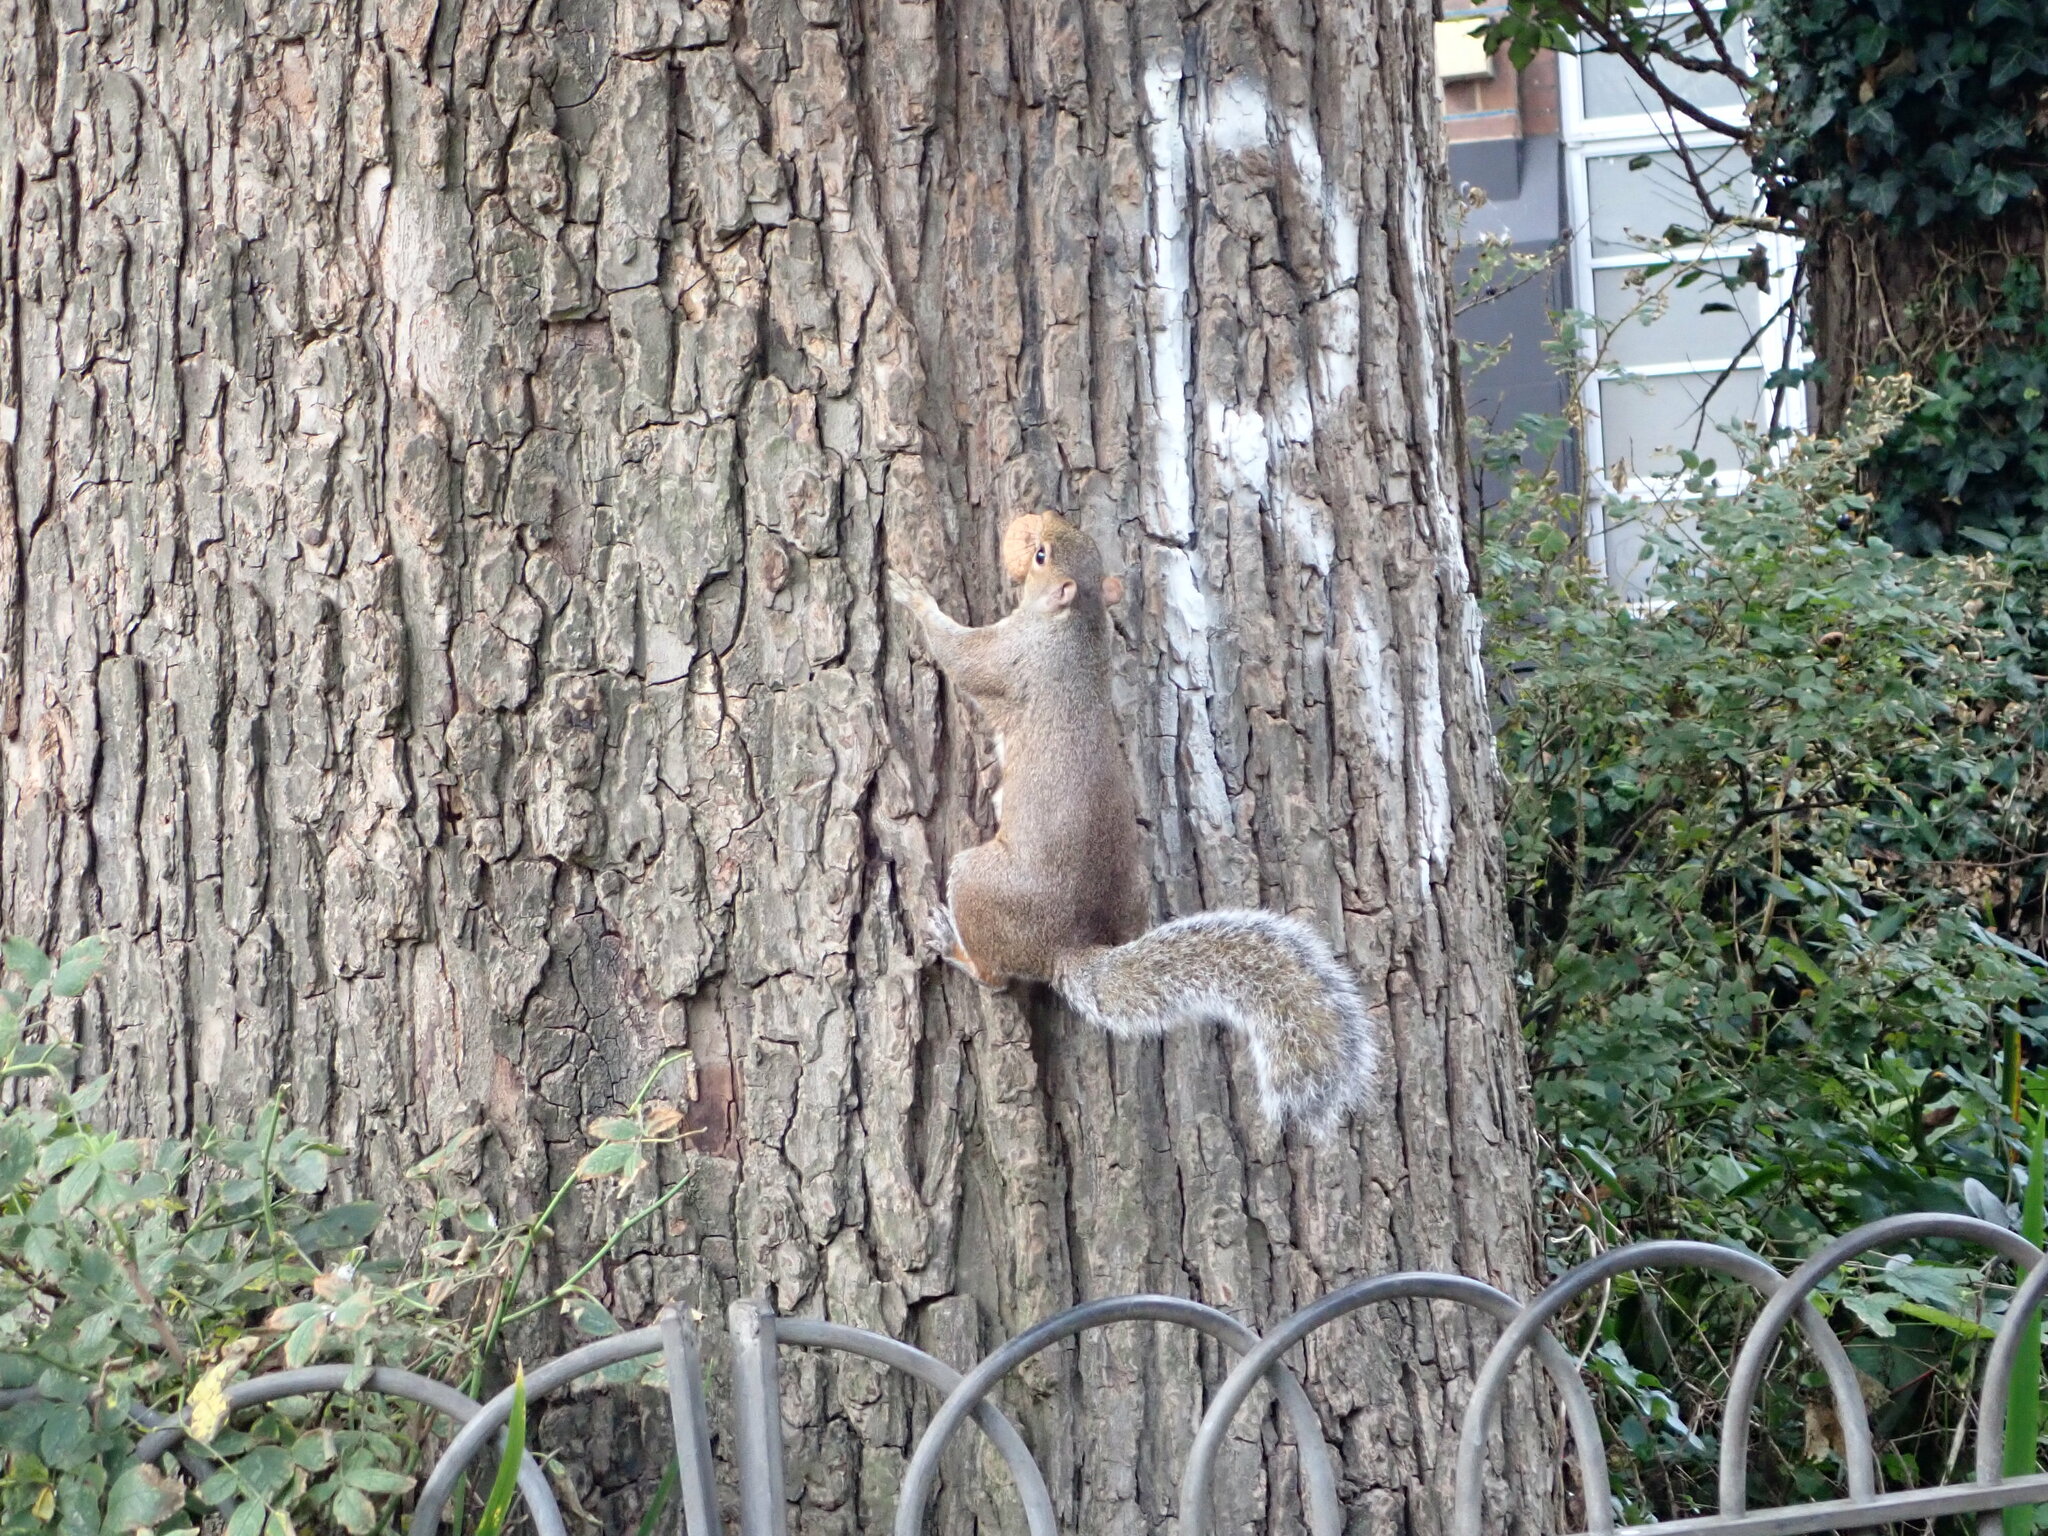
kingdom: Animalia
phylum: Chordata
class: Mammalia
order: Rodentia
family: Sciuridae
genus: Sciurus
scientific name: Sciurus carolinensis
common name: Eastern gray squirrel
